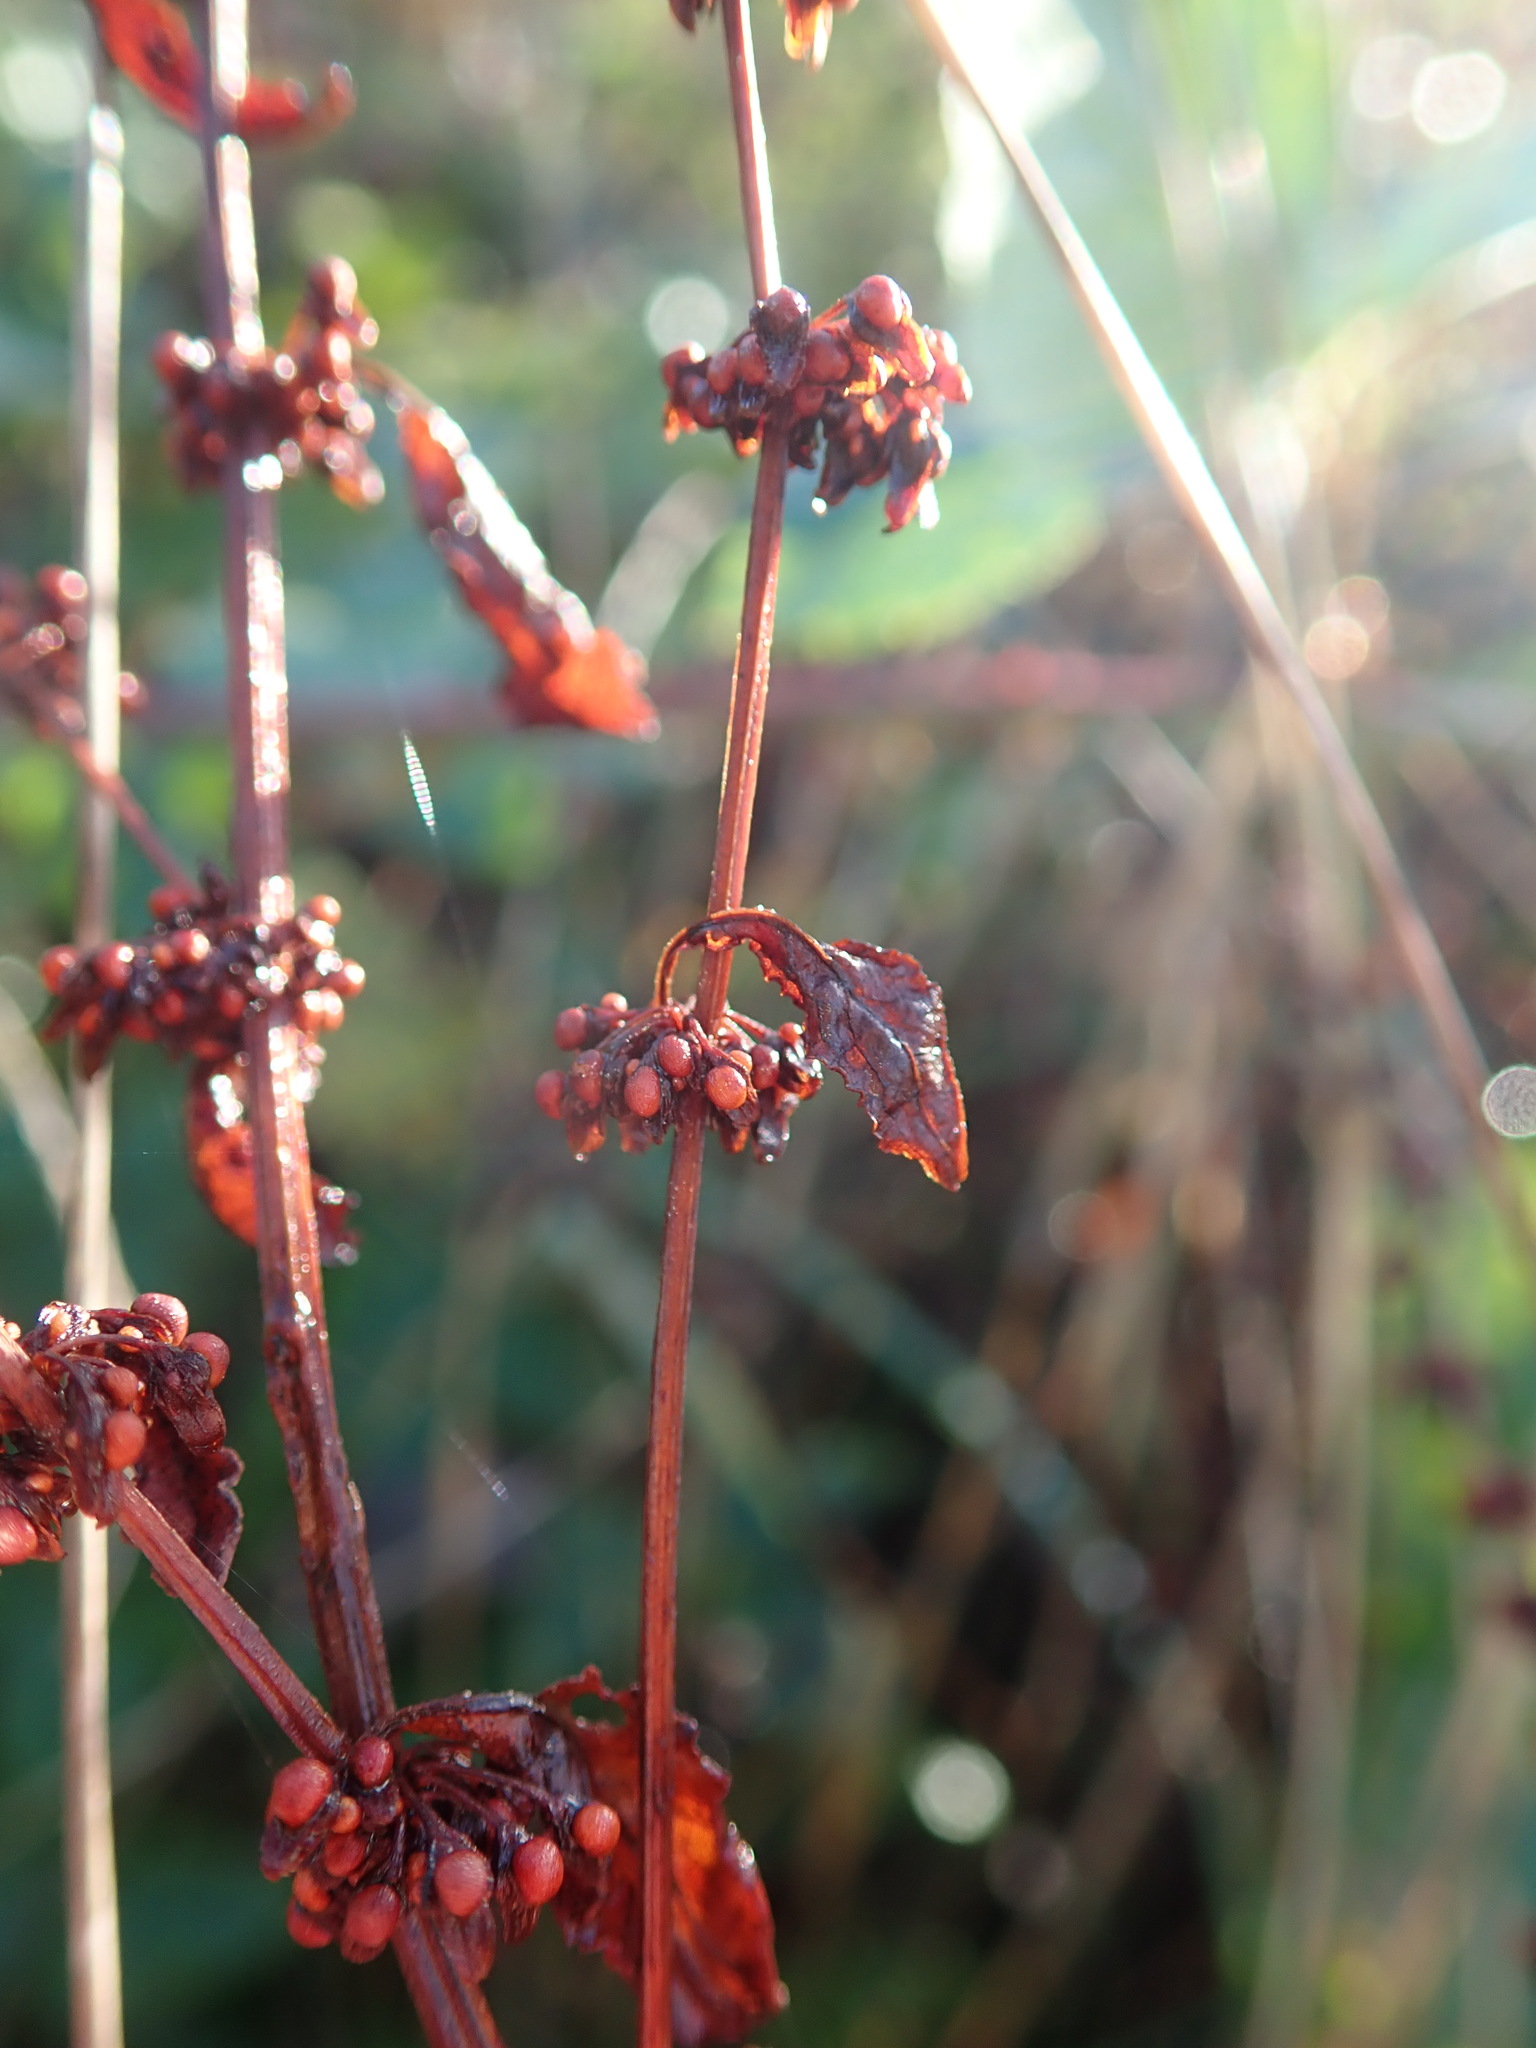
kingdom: Plantae
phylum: Tracheophyta
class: Magnoliopsida
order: Caryophyllales
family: Polygonaceae
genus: Rumex
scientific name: Rumex sanguineus
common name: Wood dock
